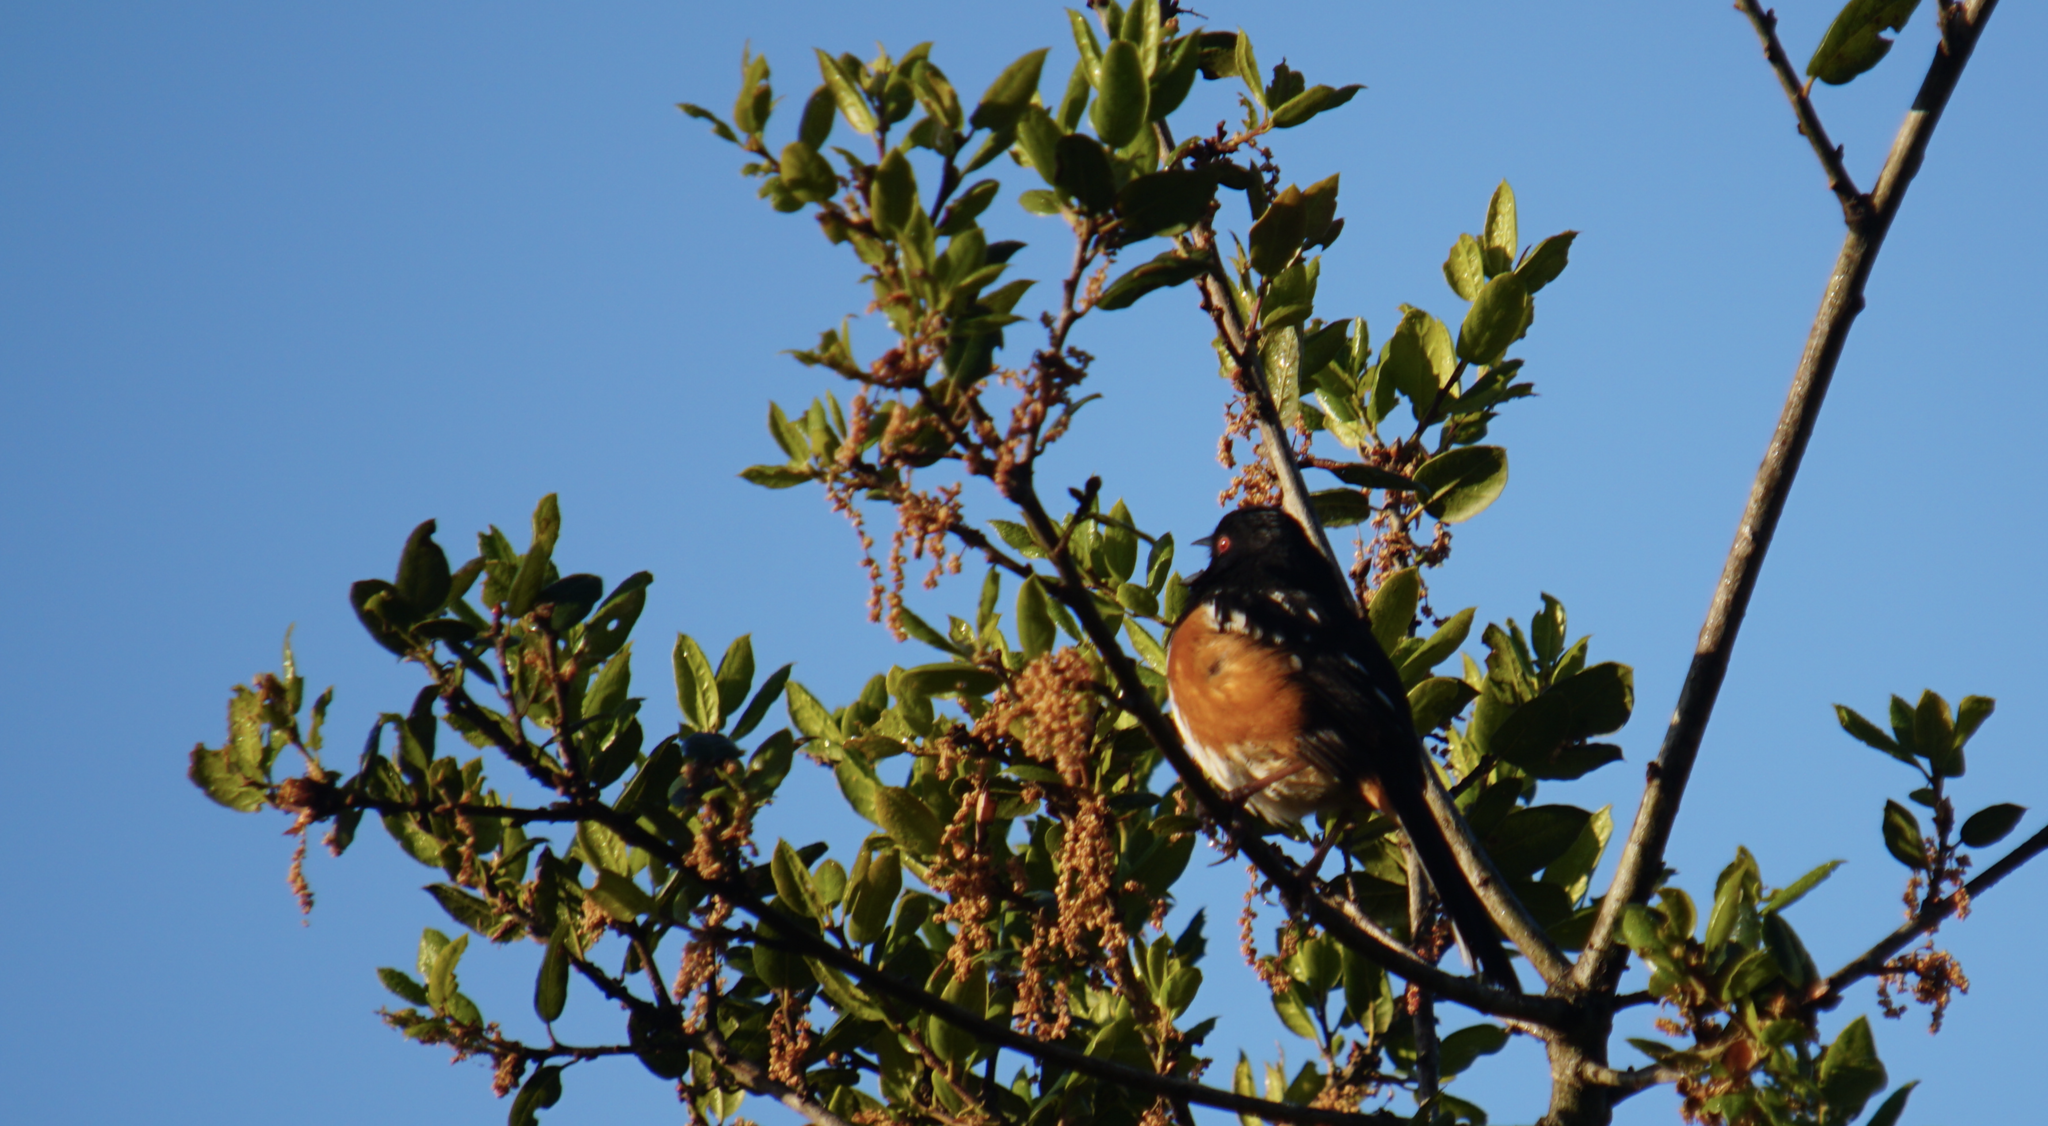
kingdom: Animalia
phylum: Chordata
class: Aves
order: Passeriformes
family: Passerellidae
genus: Pipilo
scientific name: Pipilo maculatus
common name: Spotted towhee
